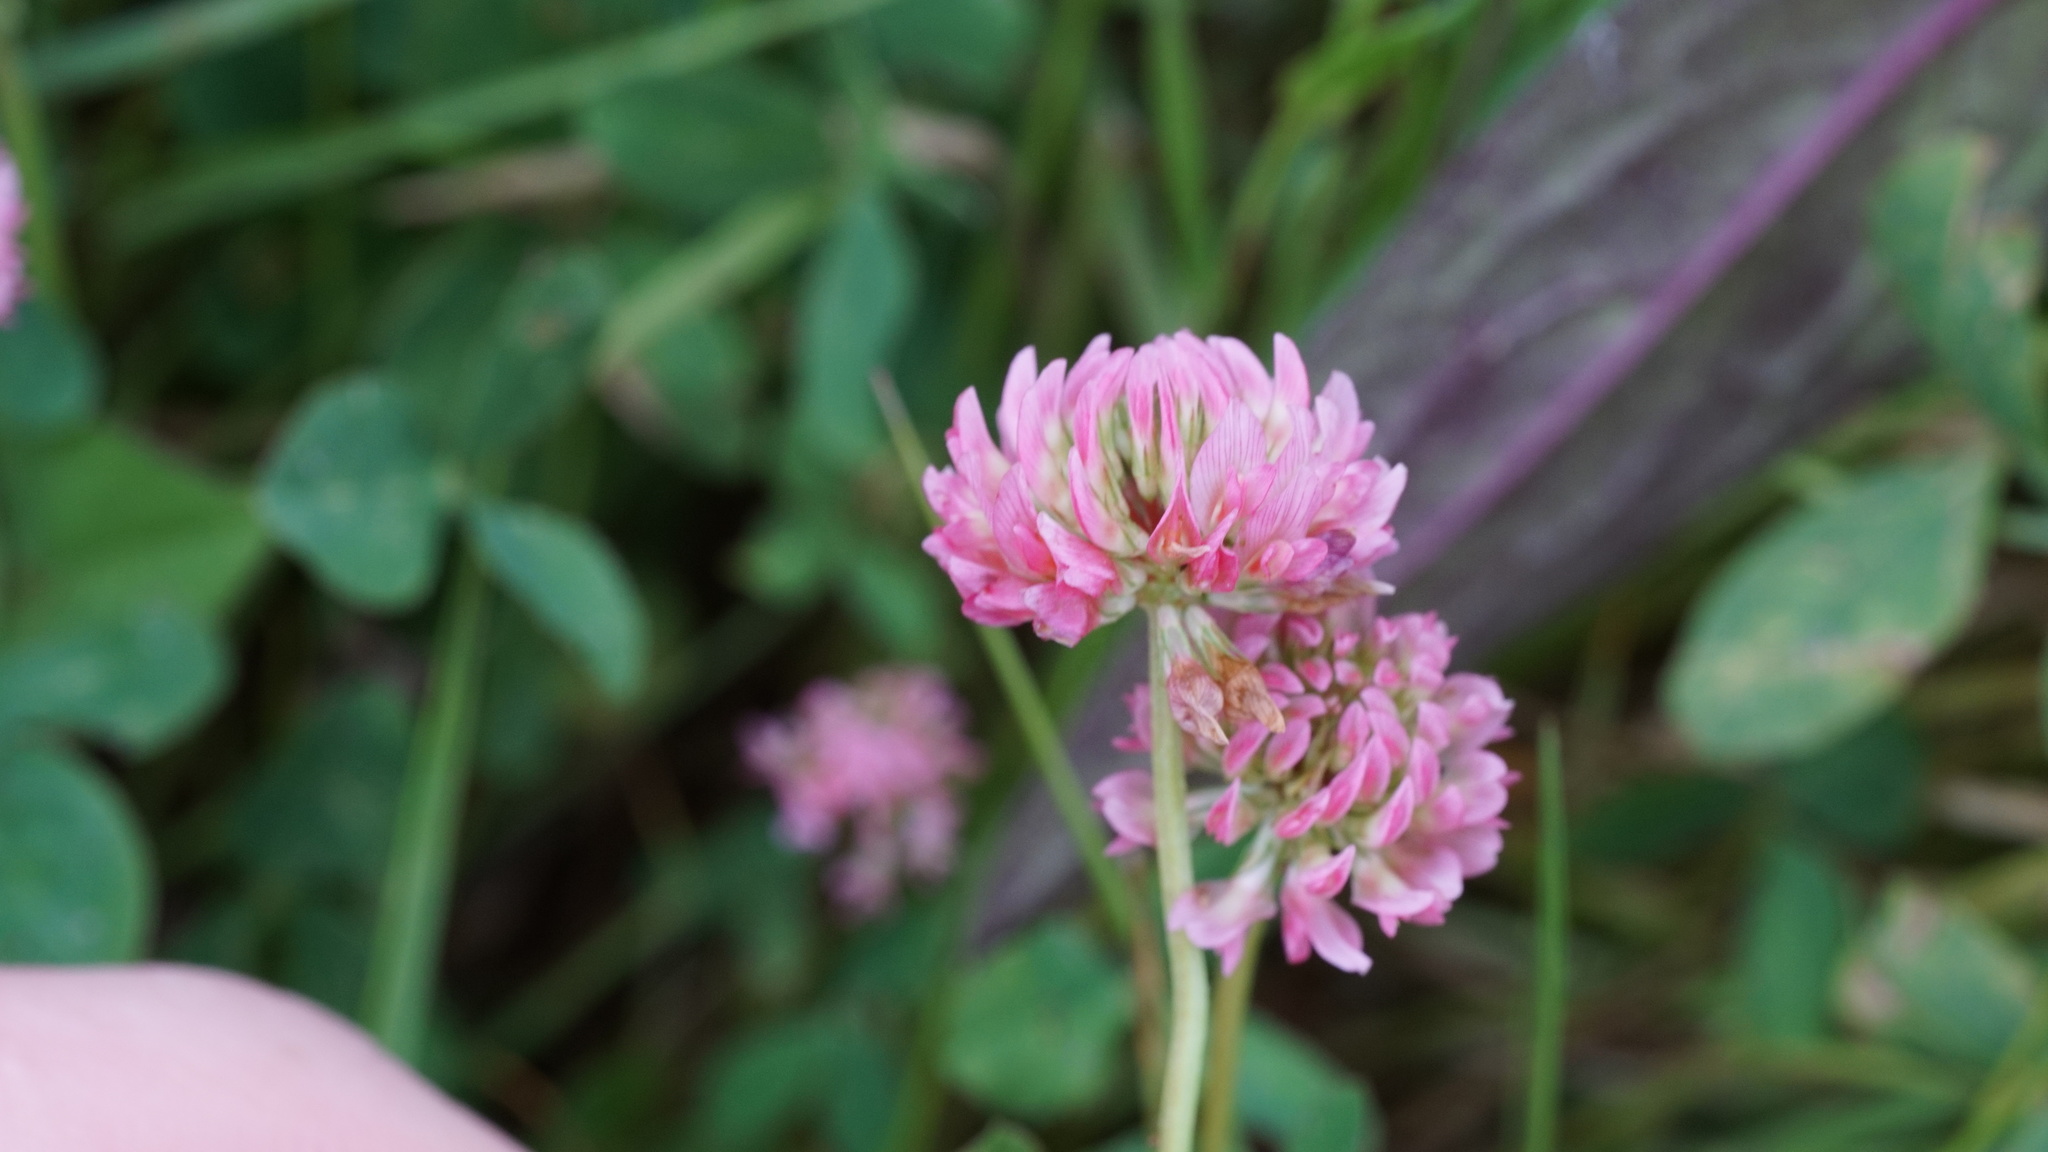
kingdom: Plantae
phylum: Tracheophyta
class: Magnoliopsida
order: Fabales
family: Fabaceae
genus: Trifolium
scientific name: Trifolium hybridum
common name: Alsike clover
